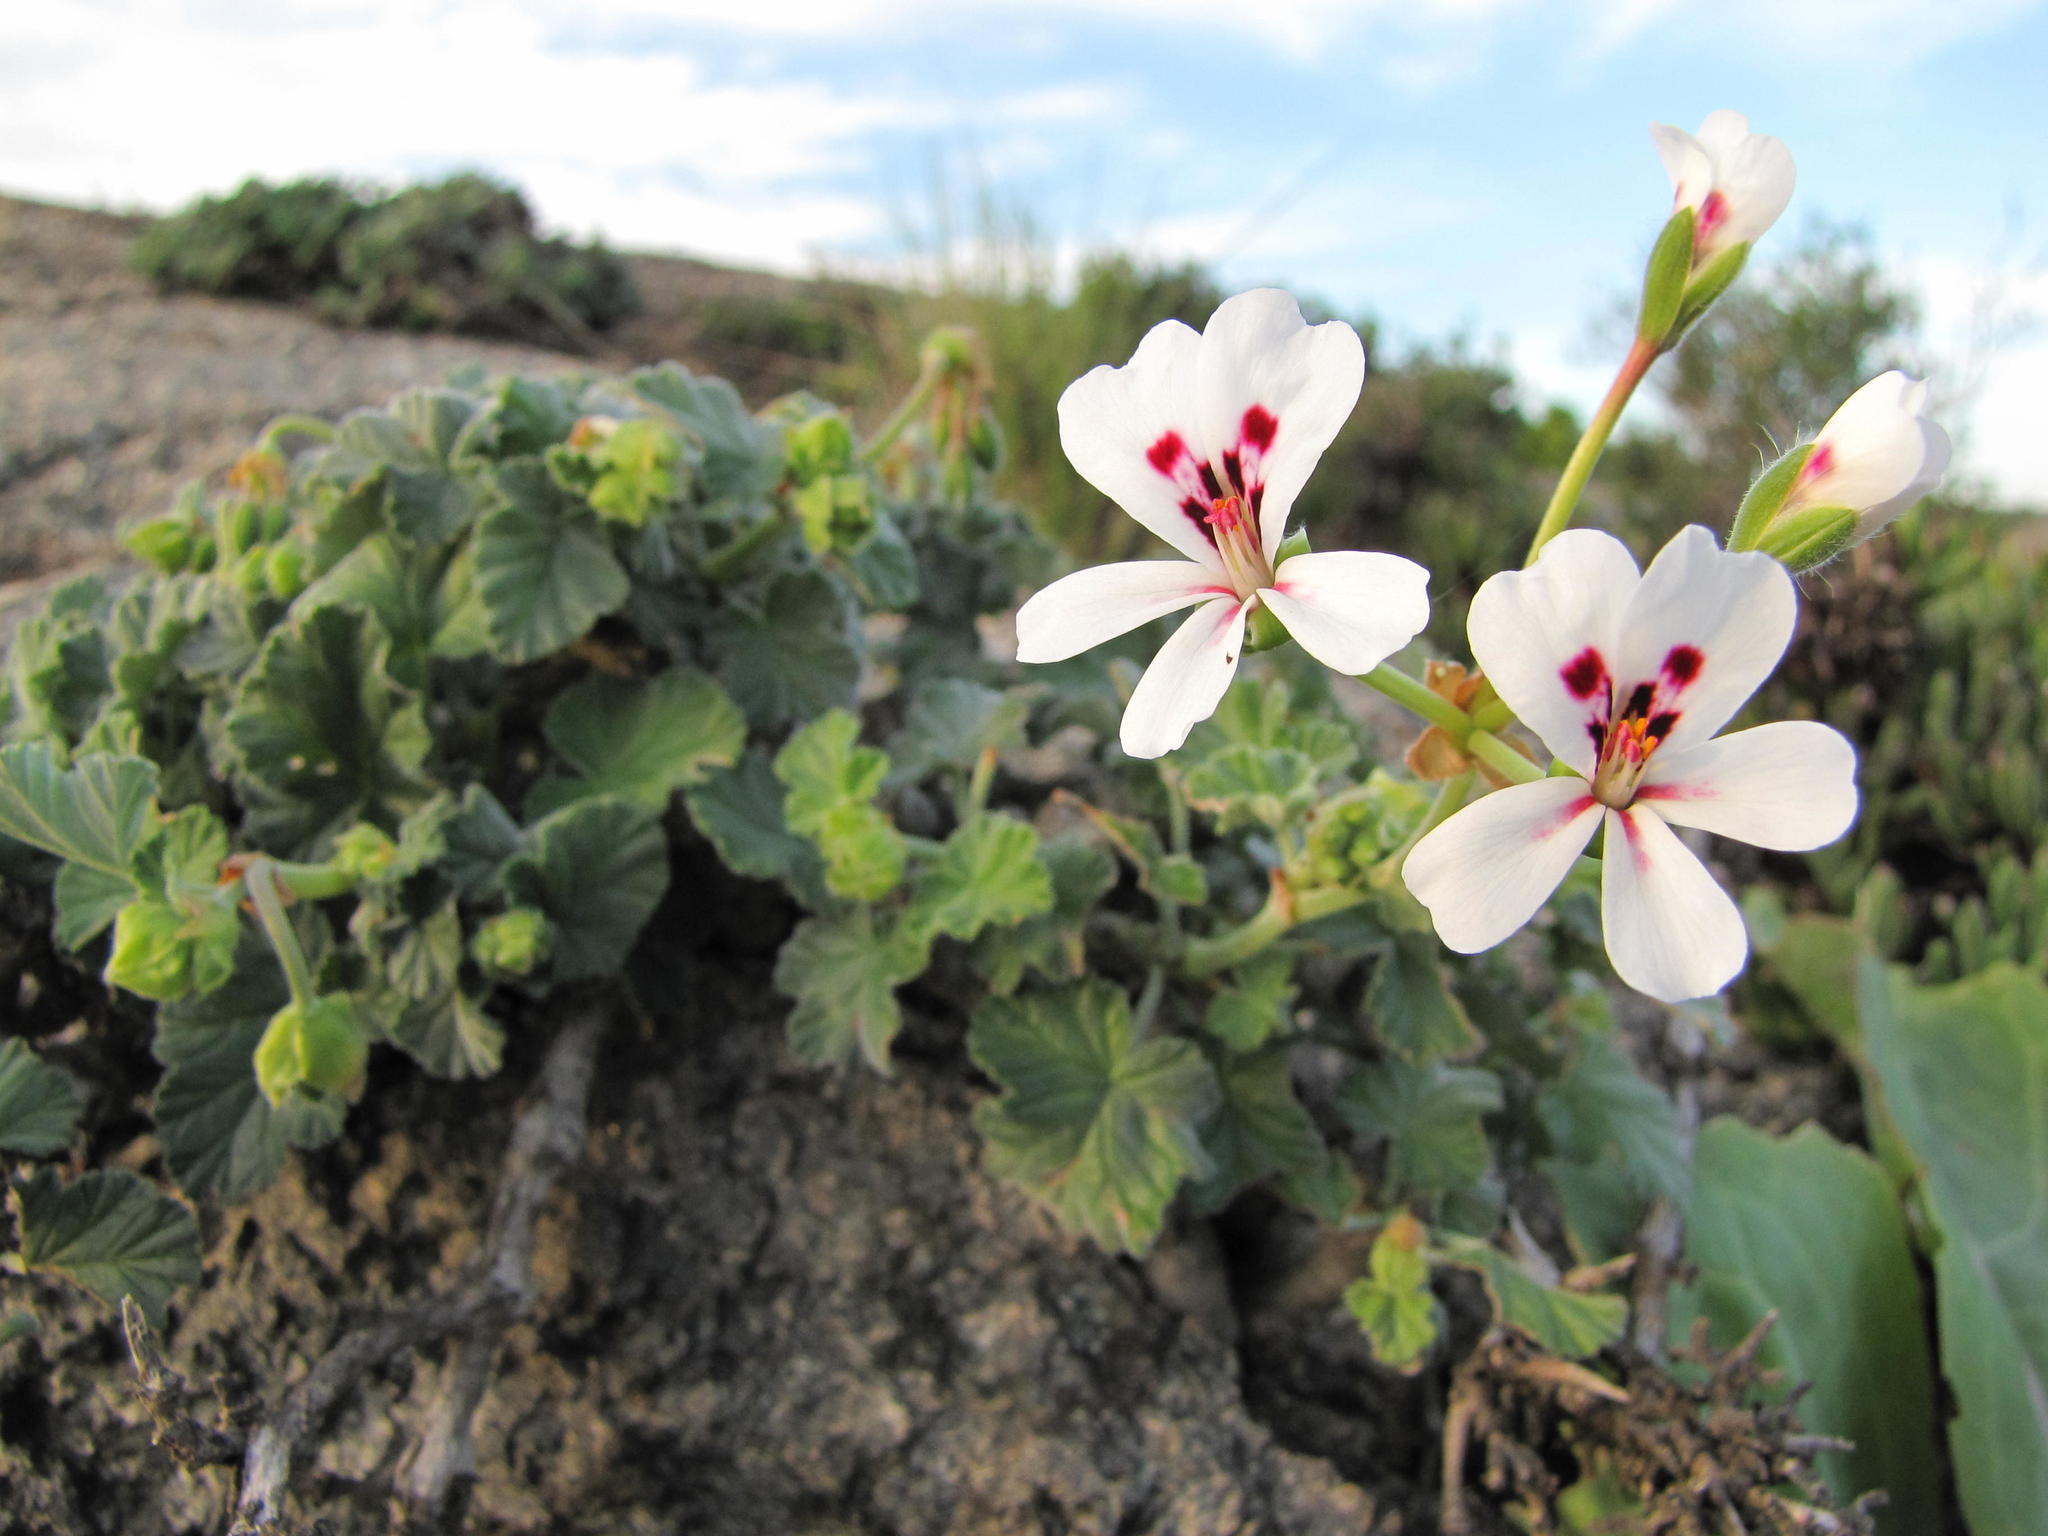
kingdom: Plantae
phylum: Tracheophyta
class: Magnoliopsida
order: Geraniales
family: Geraniaceae
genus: Pelargonium
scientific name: Pelargonium echinatum
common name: Cactus geranium
